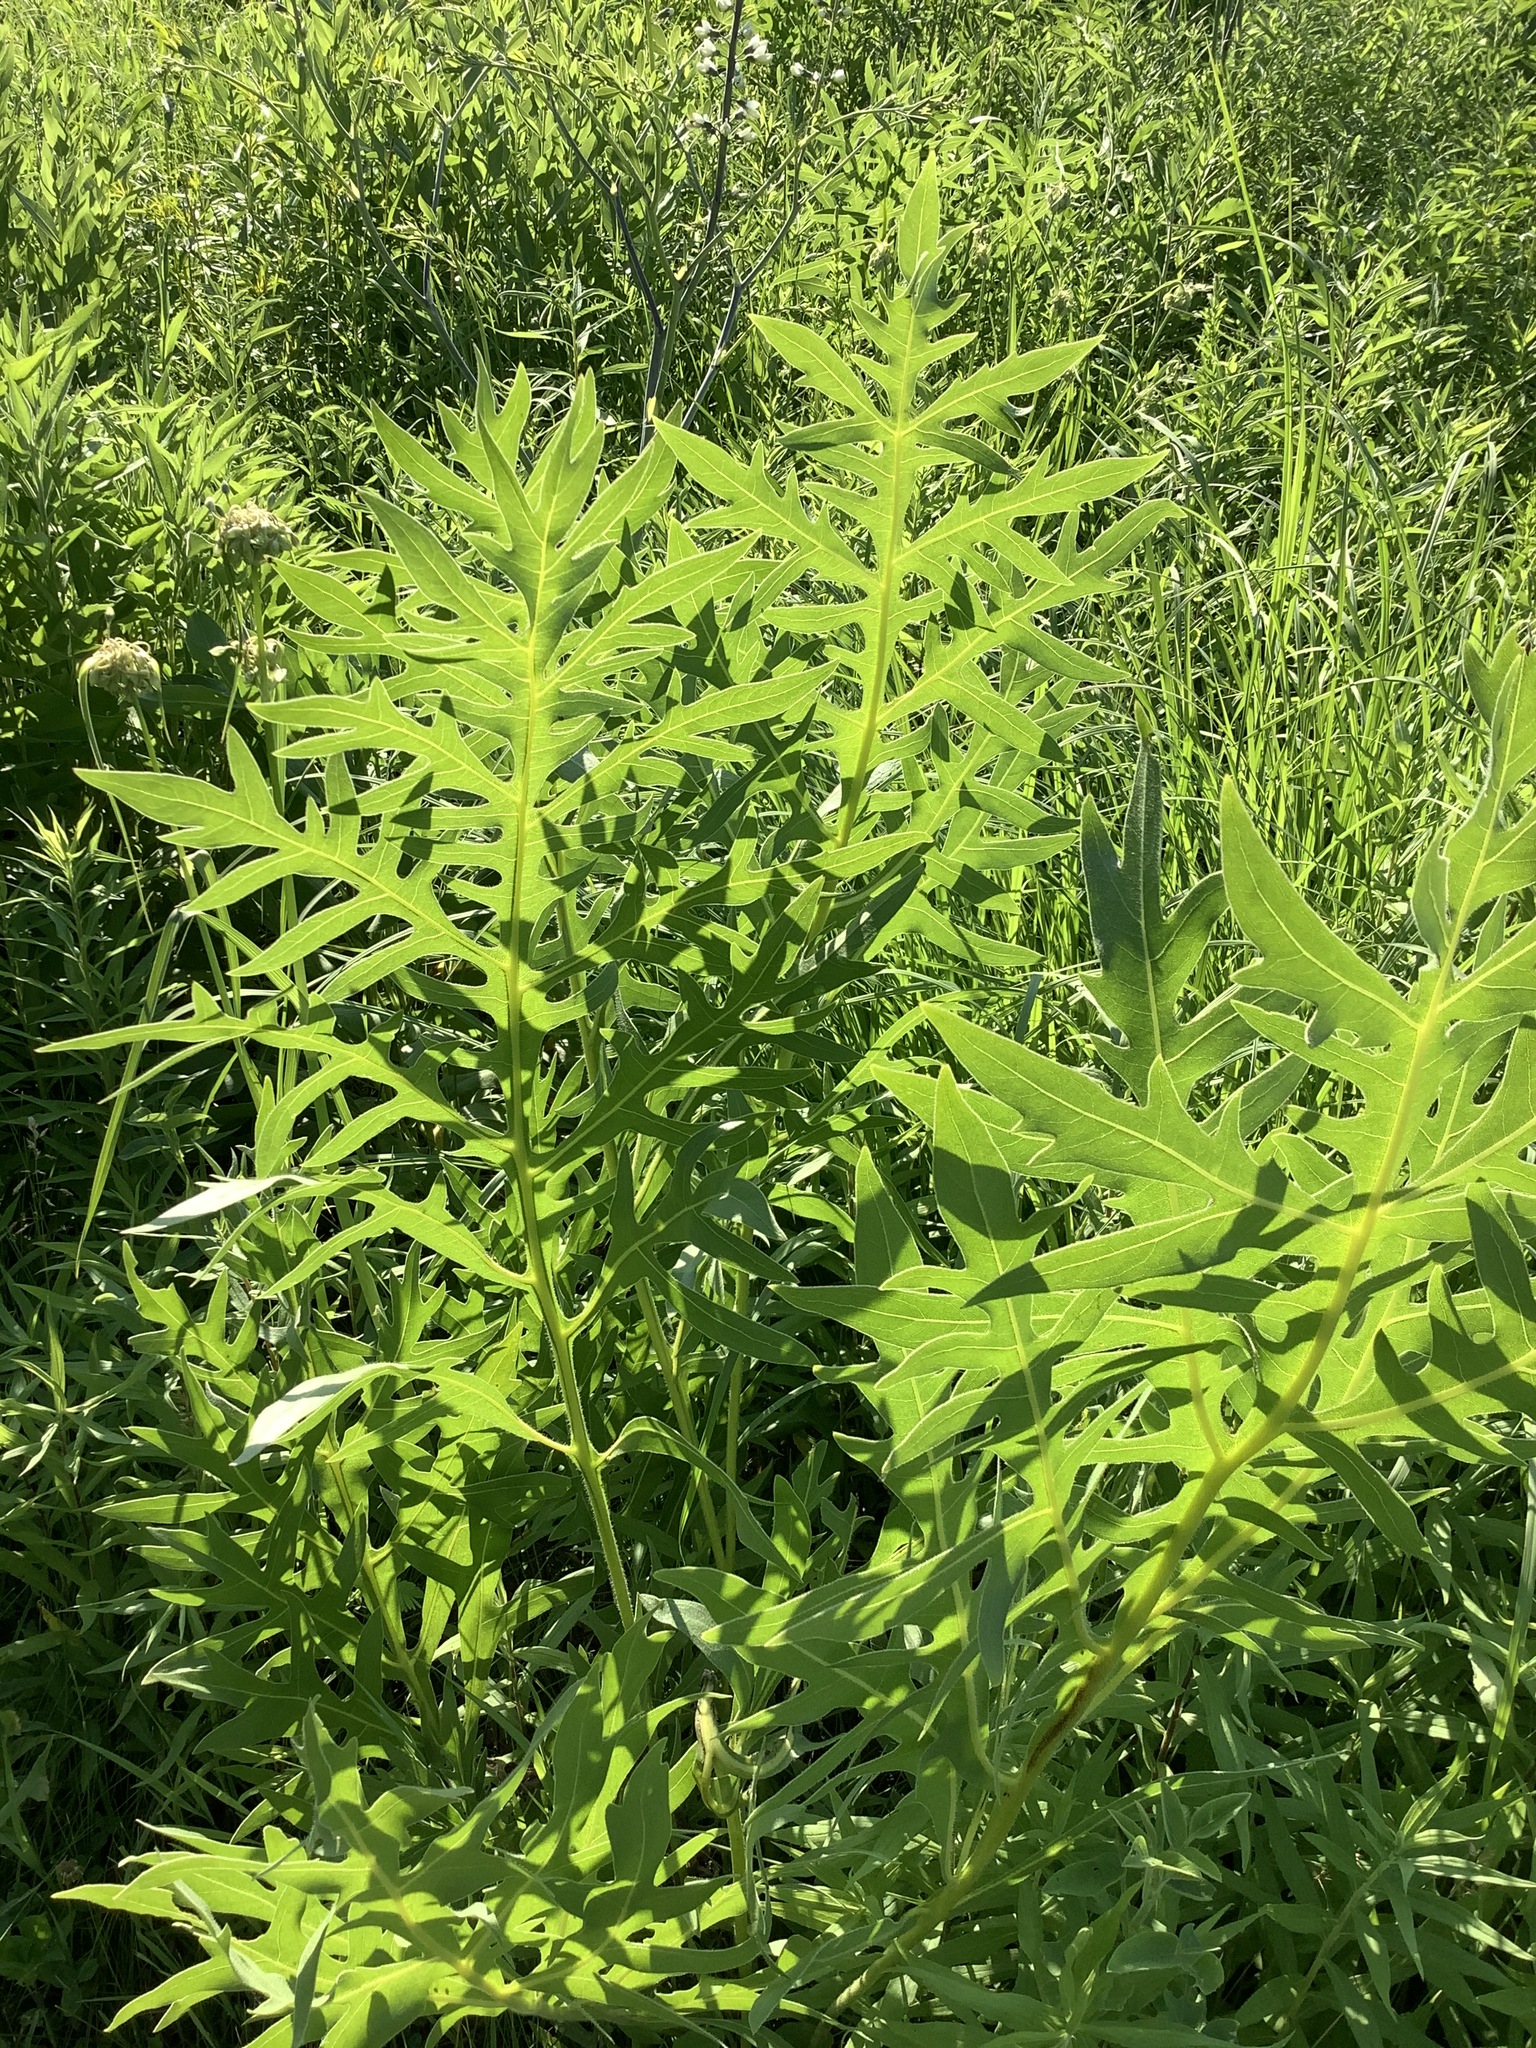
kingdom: Plantae
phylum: Tracheophyta
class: Magnoliopsida
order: Asterales
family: Asteraceae
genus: Silphium
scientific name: Silphium laciniatum
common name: Polarplant
